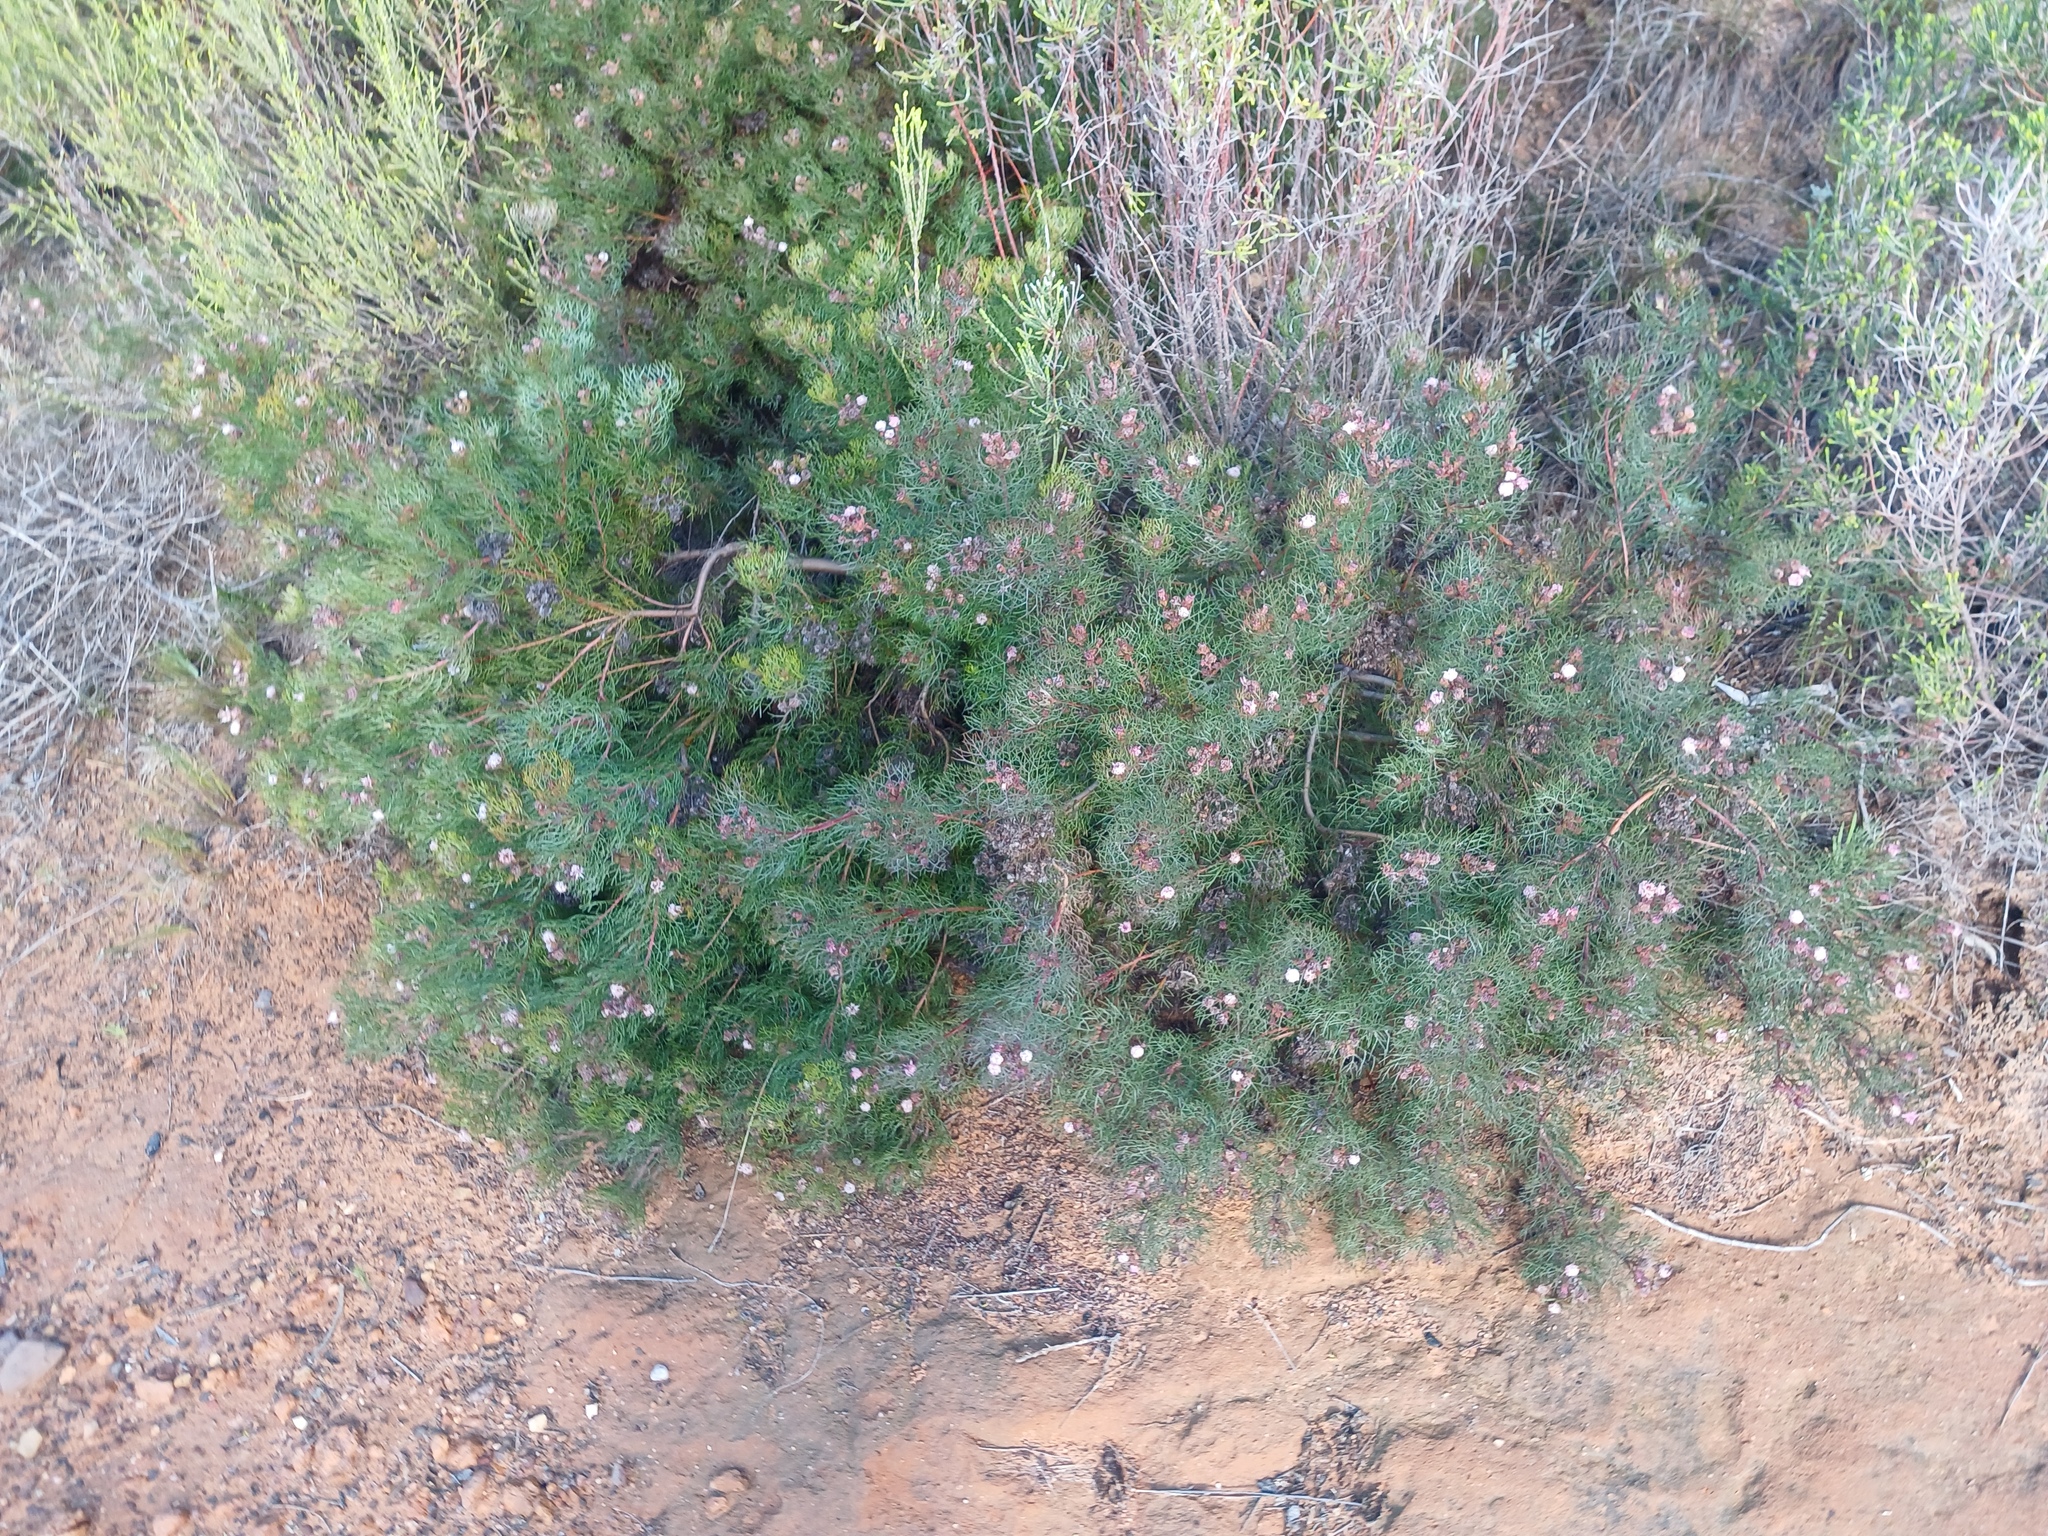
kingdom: Plantae
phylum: Tracheophyta
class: Magnoliopsida
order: Proteales
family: Proteaceae
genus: Serruria
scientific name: Serruria fasciflora
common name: Common pin spiderhead
